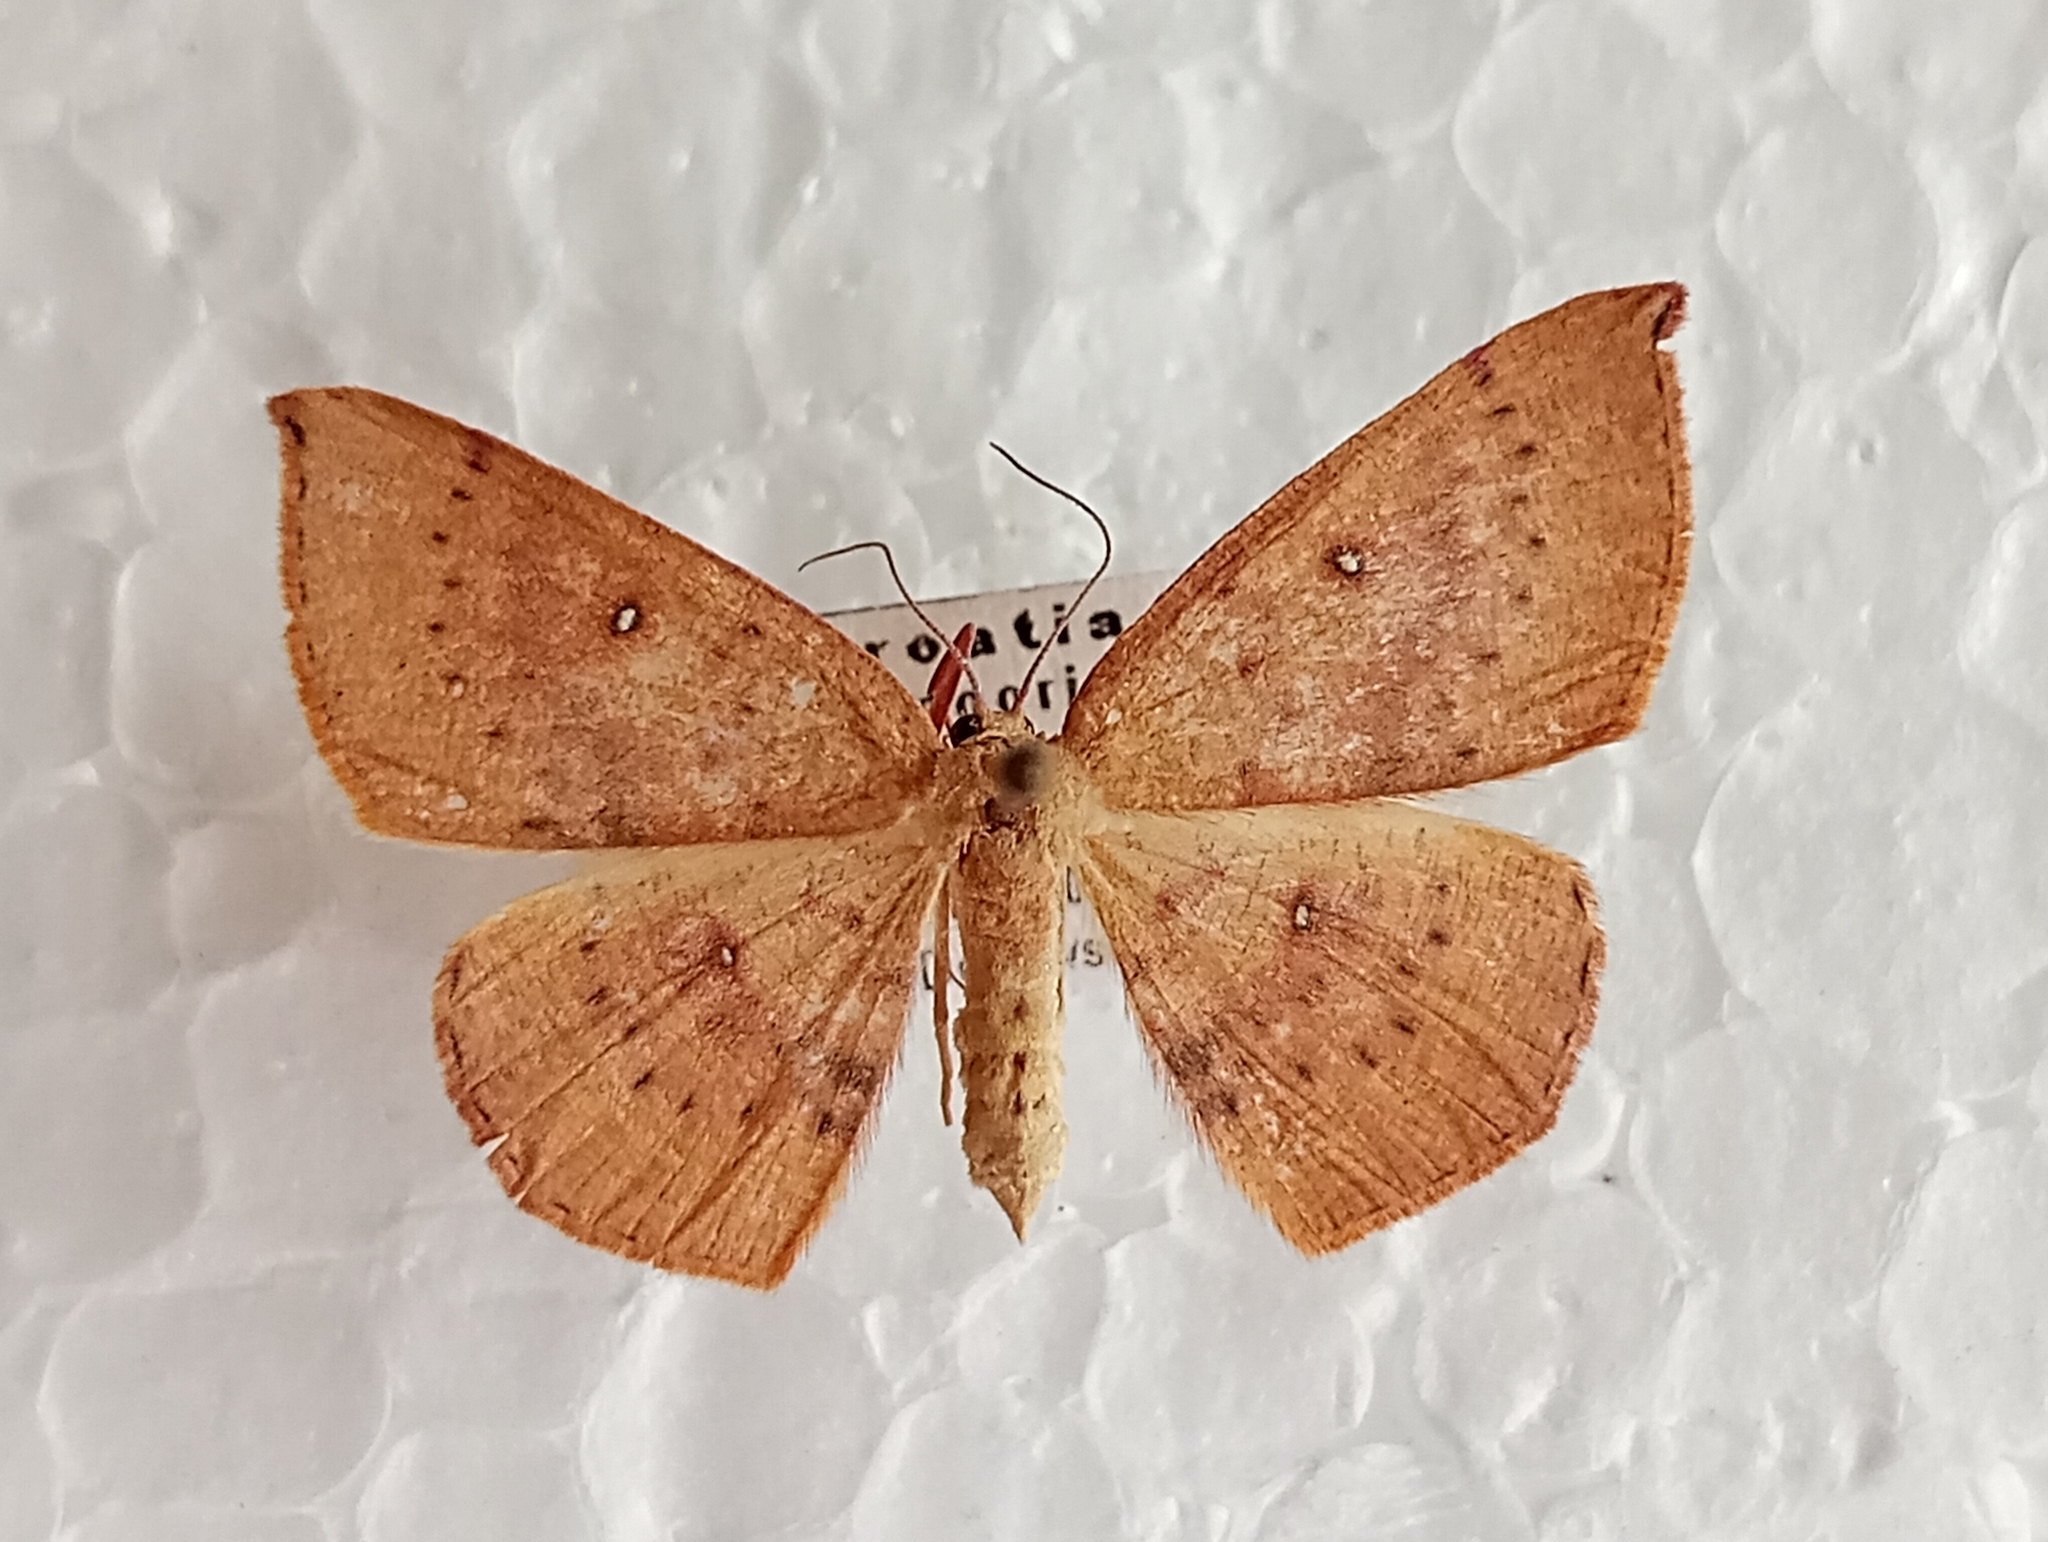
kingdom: Animalia
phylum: Arthropoda
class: Insecta
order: Lepidoptera
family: Geometridae
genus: Cyclophora
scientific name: Cyclophora puppillaria
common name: Blair's mocha
